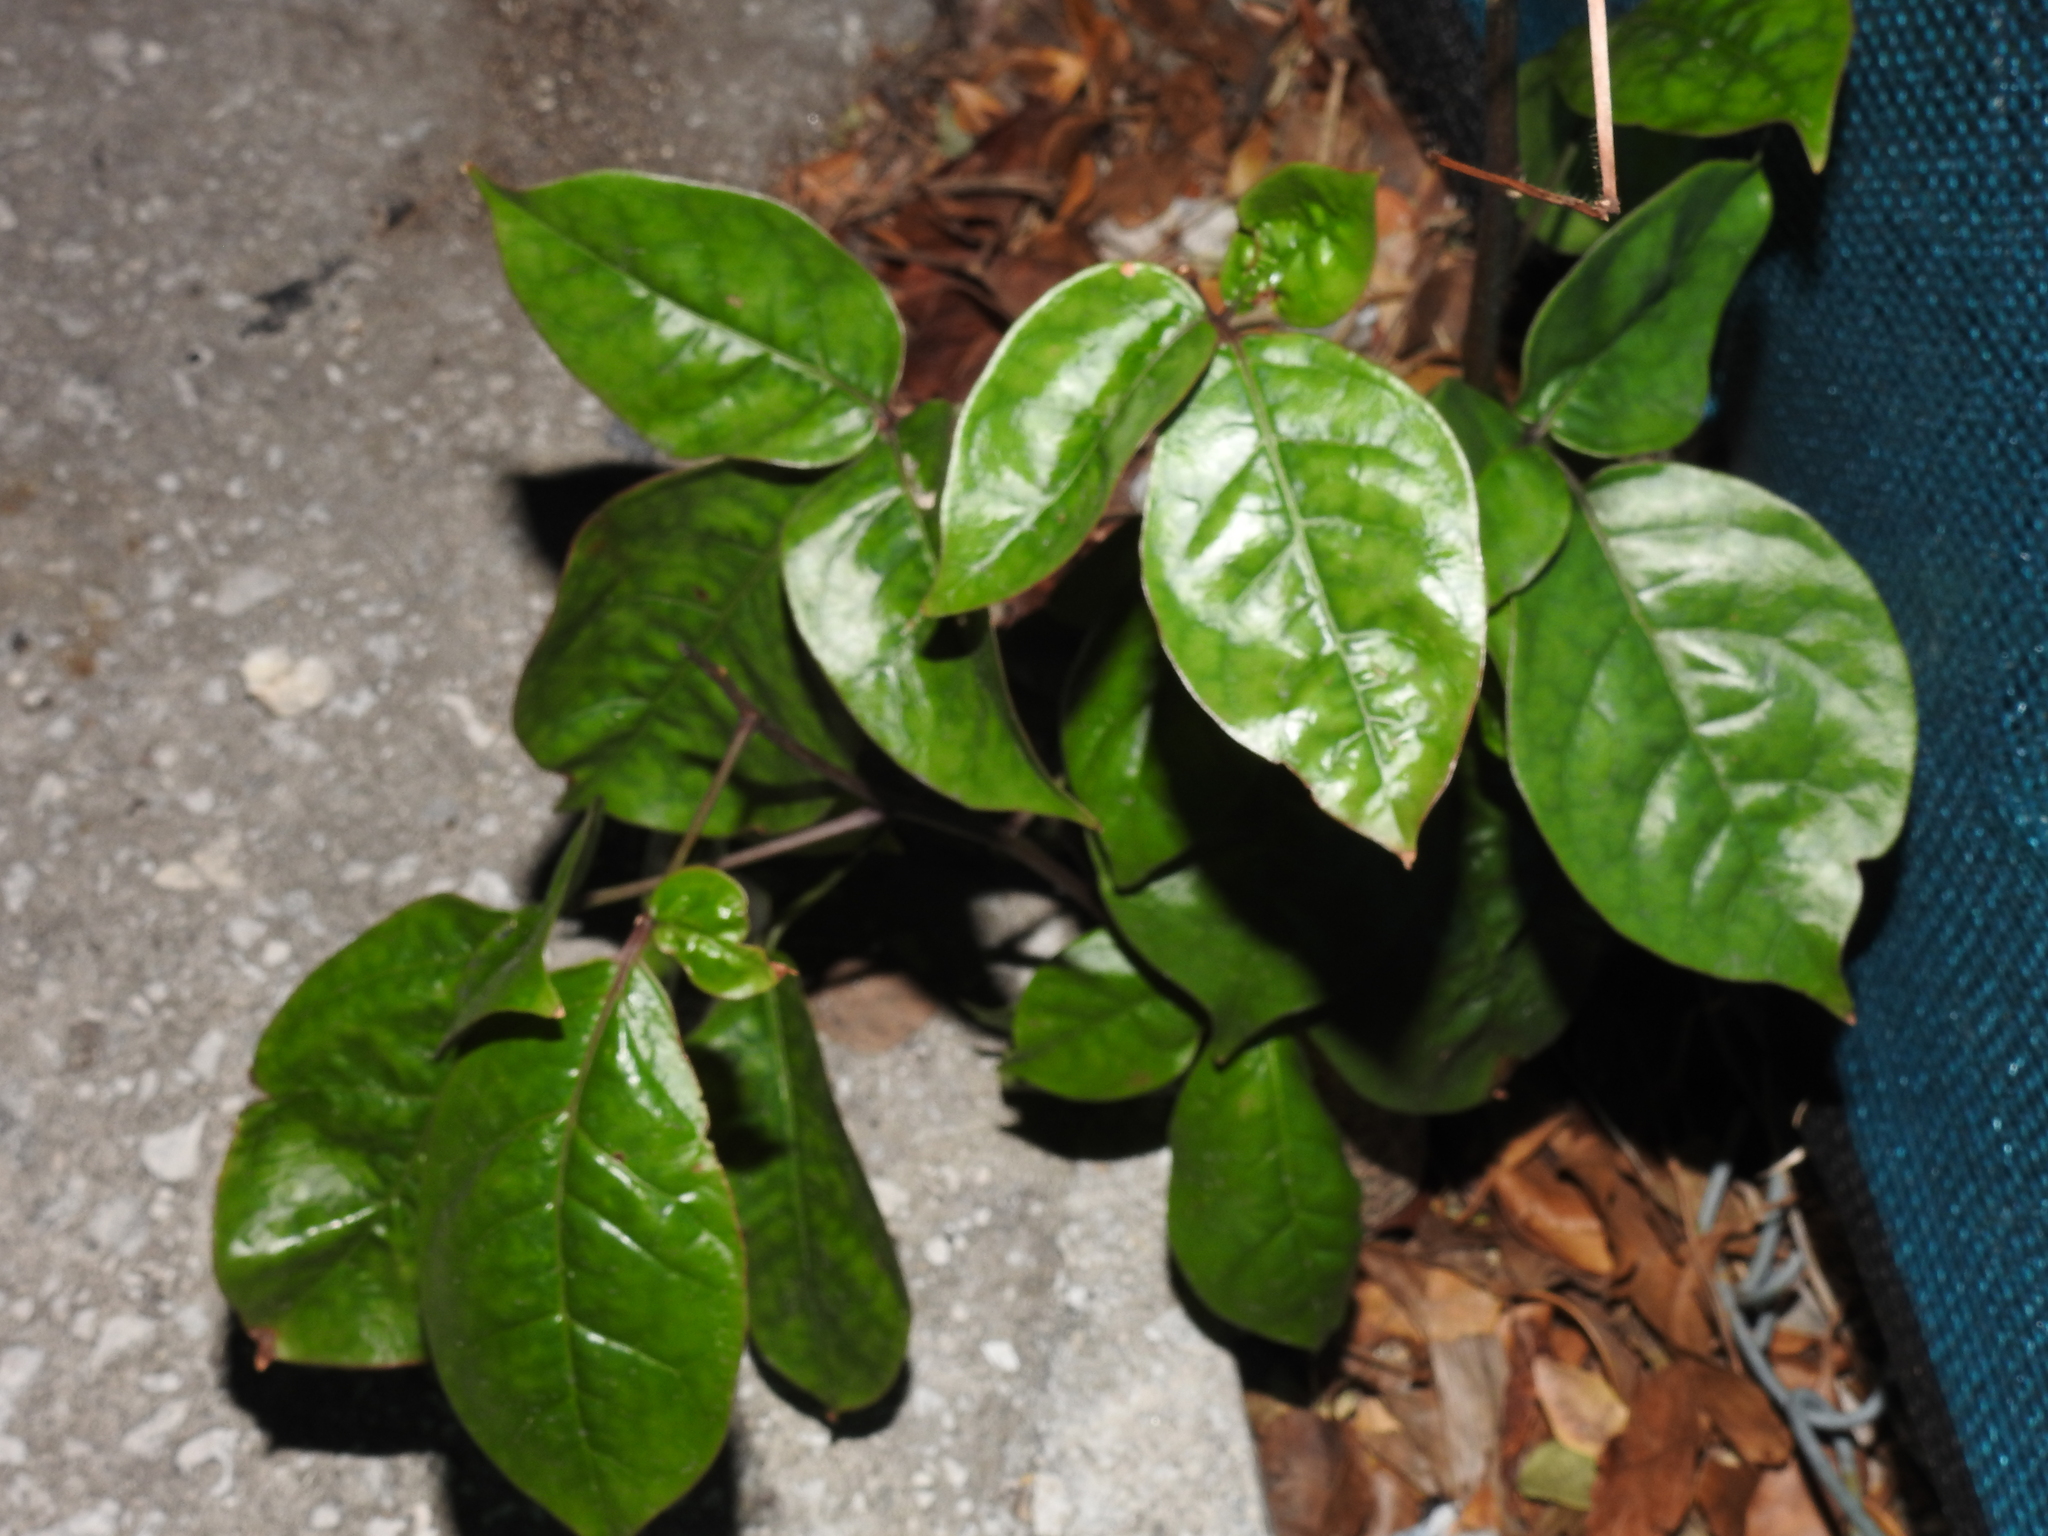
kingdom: Plantae
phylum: Tracheophyta
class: Magnoliopsida
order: Sapindales
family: Burseraceae
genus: Bursera
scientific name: Bursera simaruba
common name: Turpentine tree
